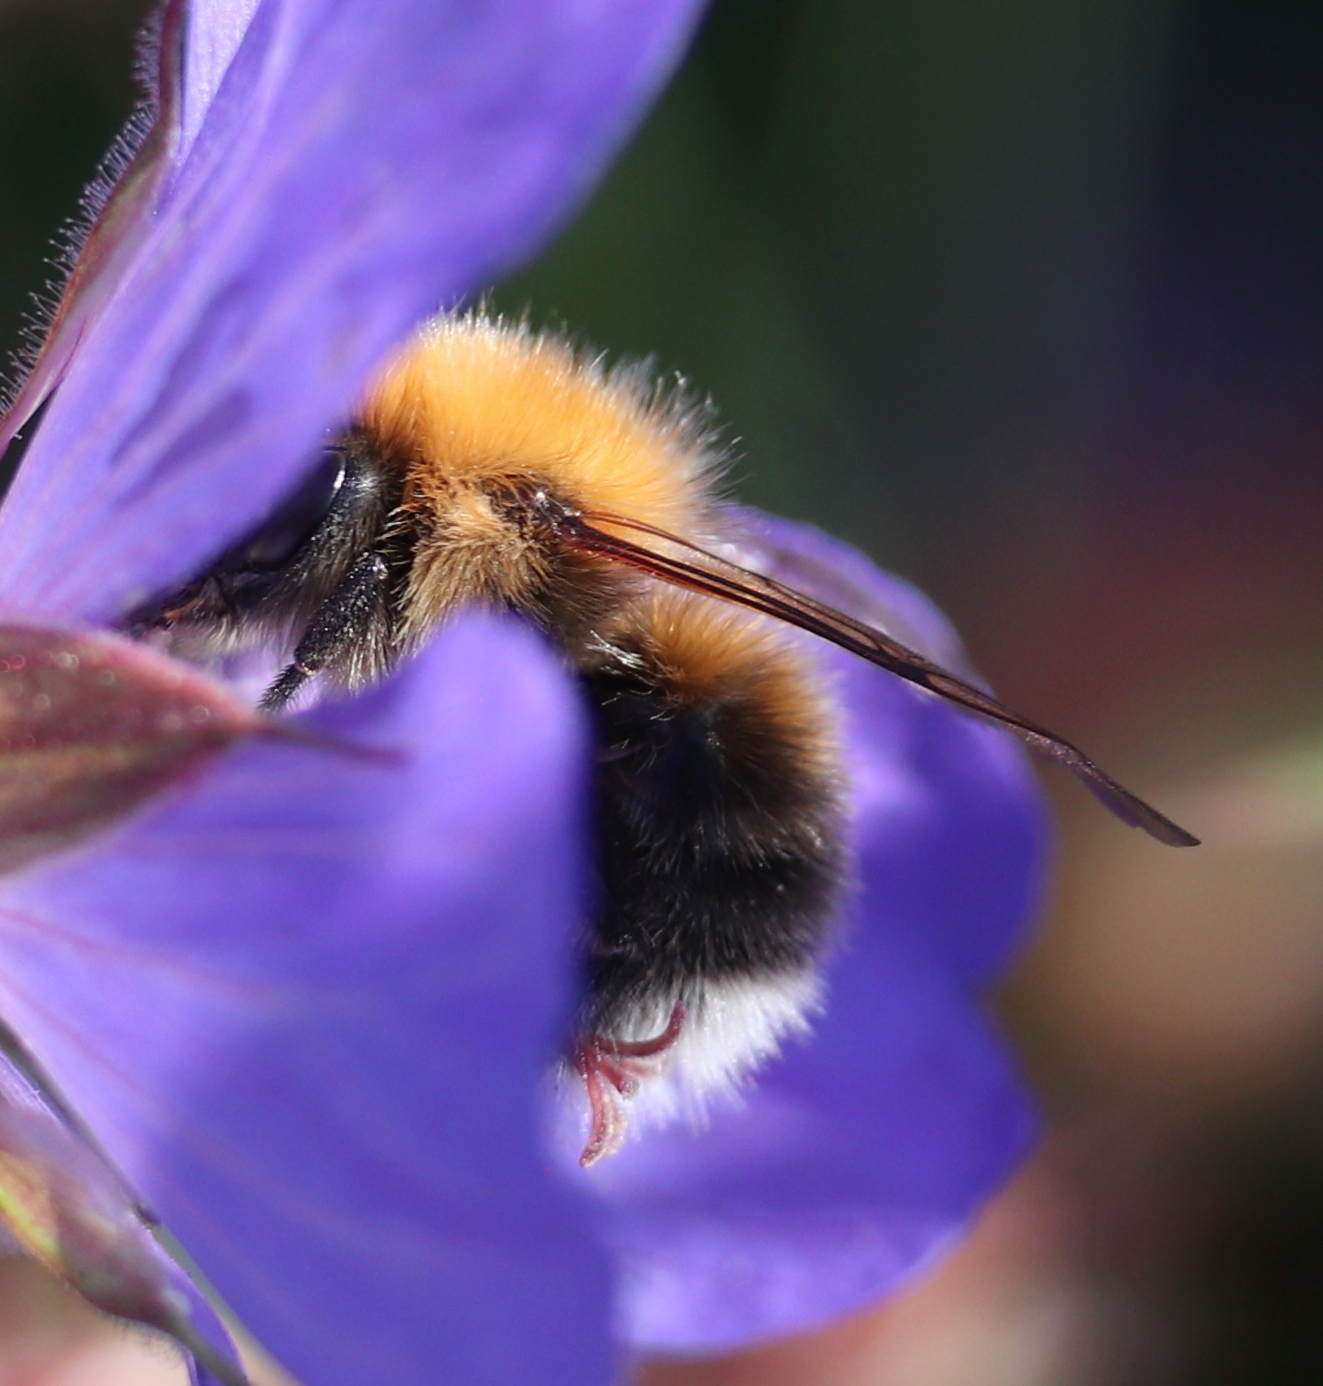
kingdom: Animalia
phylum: Arthropoda
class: Insecta
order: Hymenoptera
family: Apidae
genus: Bombus
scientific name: Bombus hypnorum
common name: New garden bumblebee
